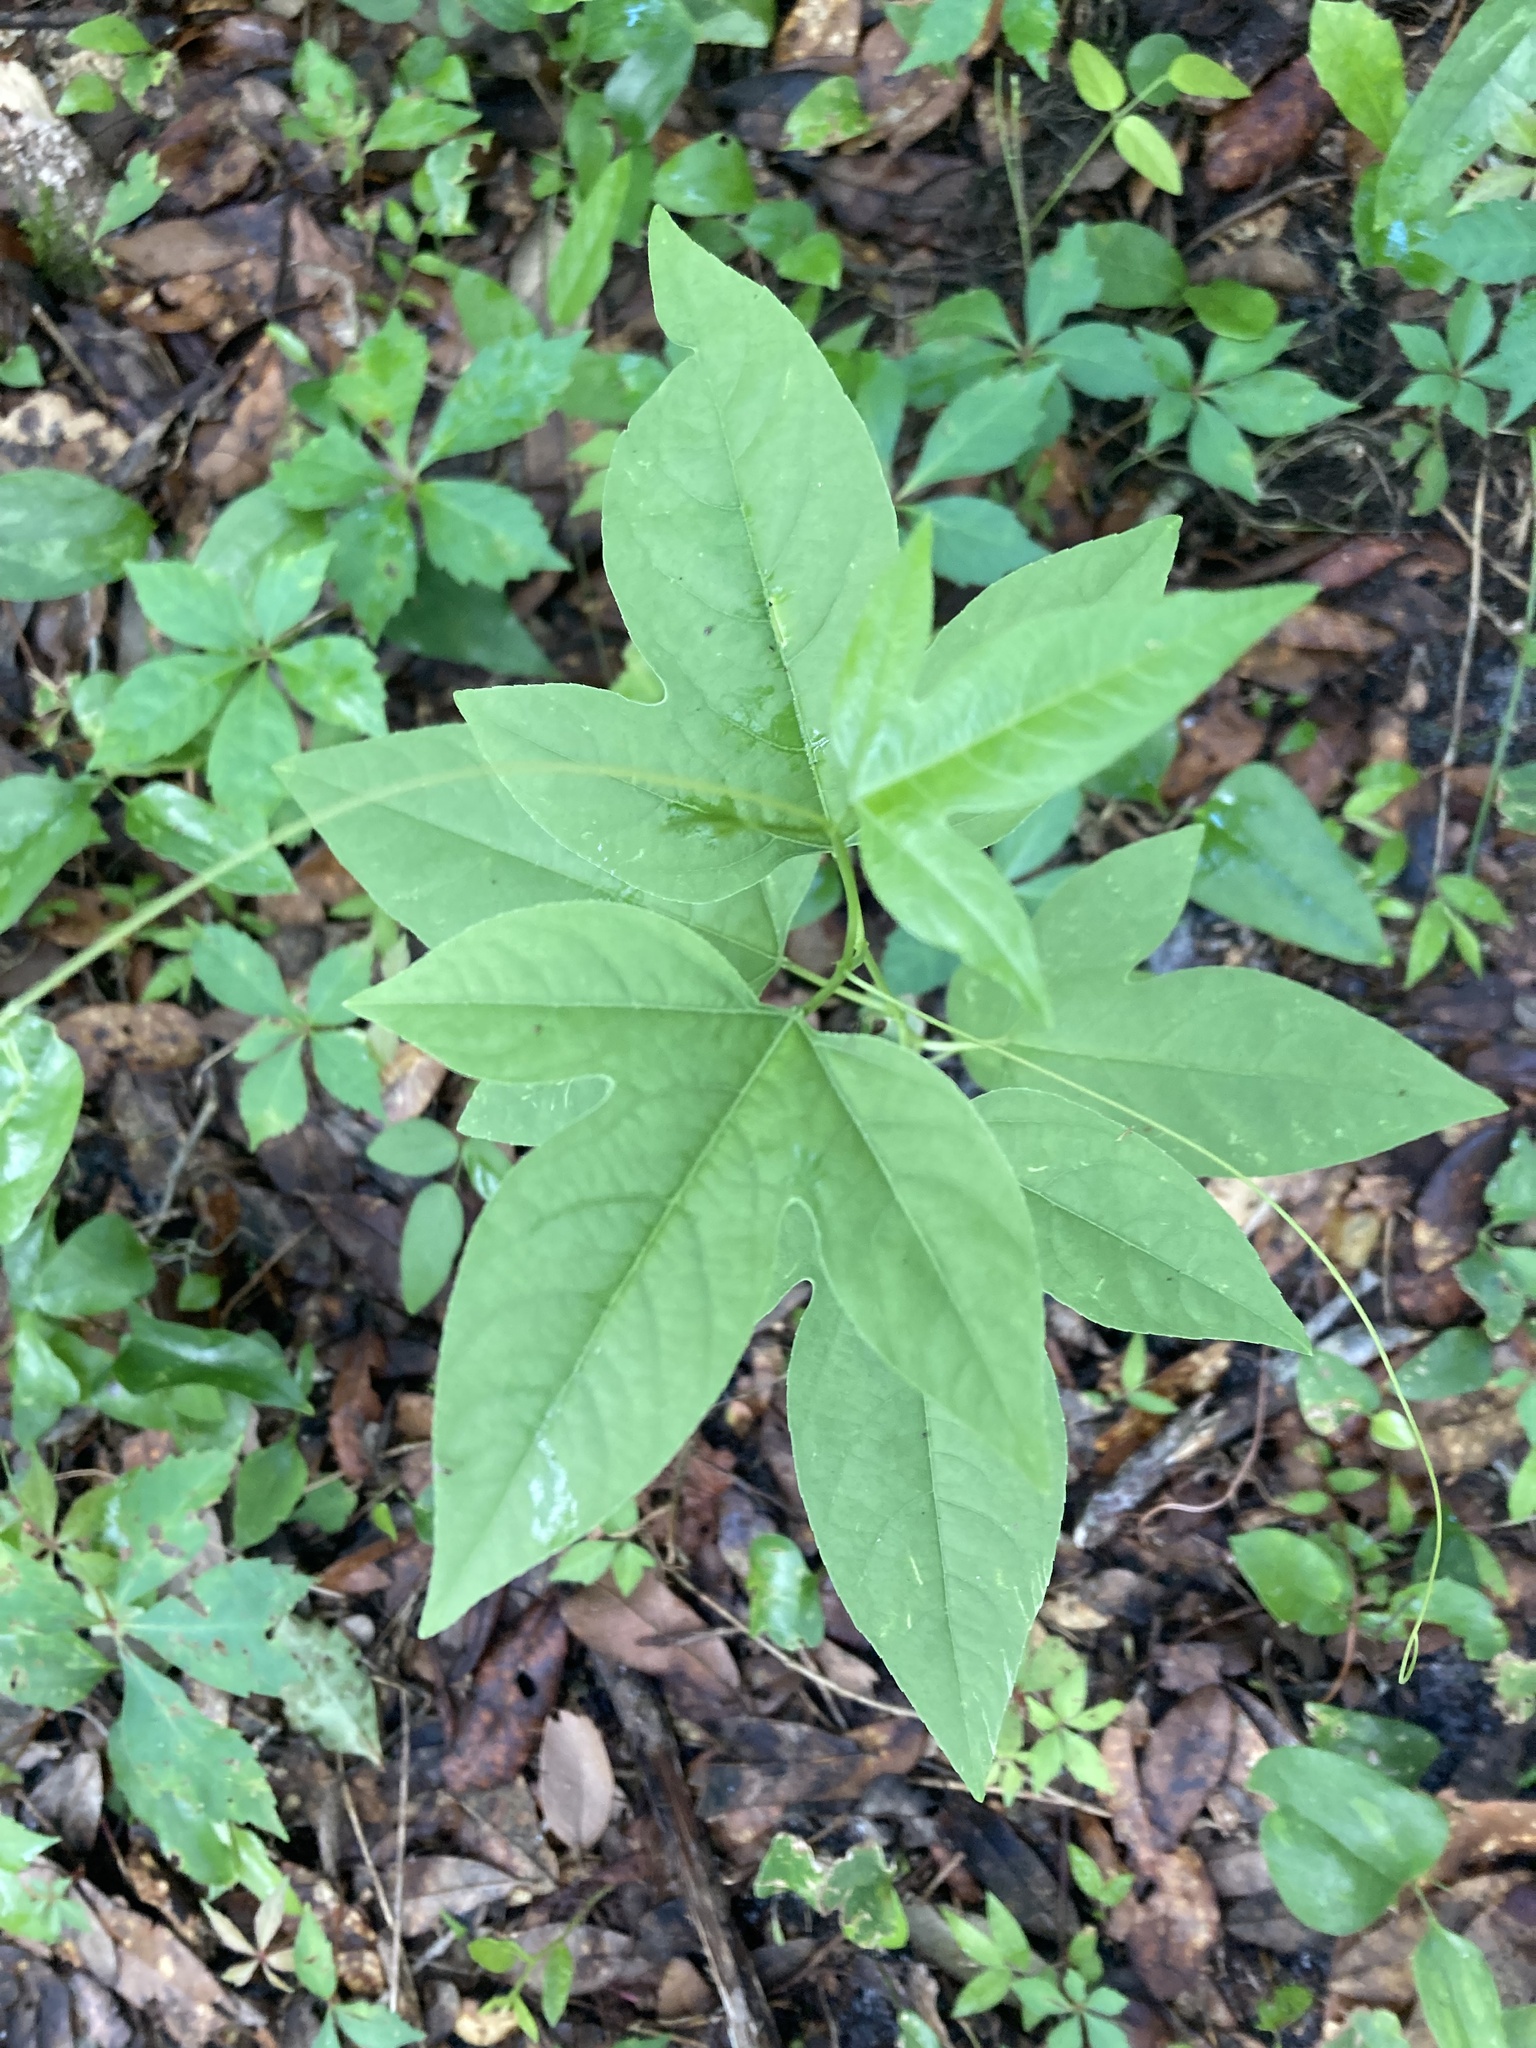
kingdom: Plantae
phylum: Tracheophyta
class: Magnoliopsida
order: Malpighiales
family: Passifloraceae
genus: Passiflora
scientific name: Passiflora incarnata
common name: Apricot-vine
